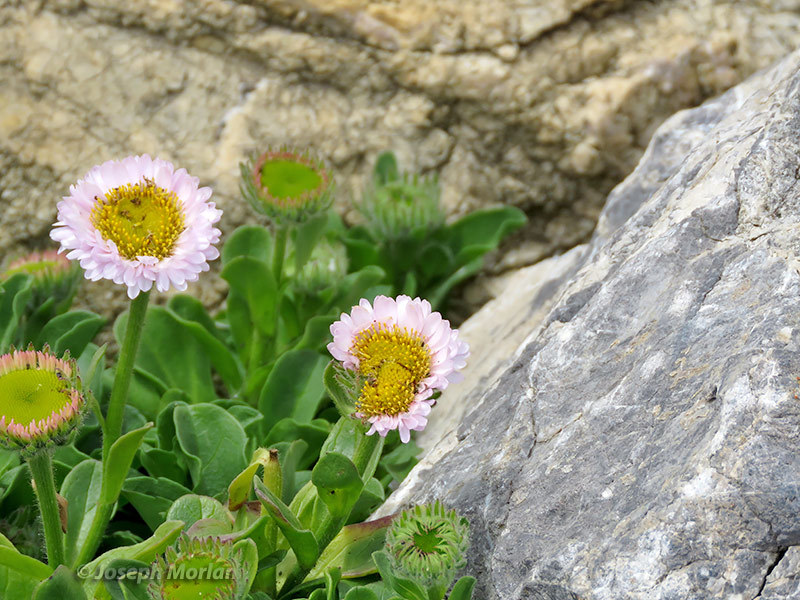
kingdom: Plantae
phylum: Tracheophyta
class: Magnoliopsida
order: Asterales
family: Asteraceae
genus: Erigeron
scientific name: Erigeron glaucus
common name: Seaside daisy
